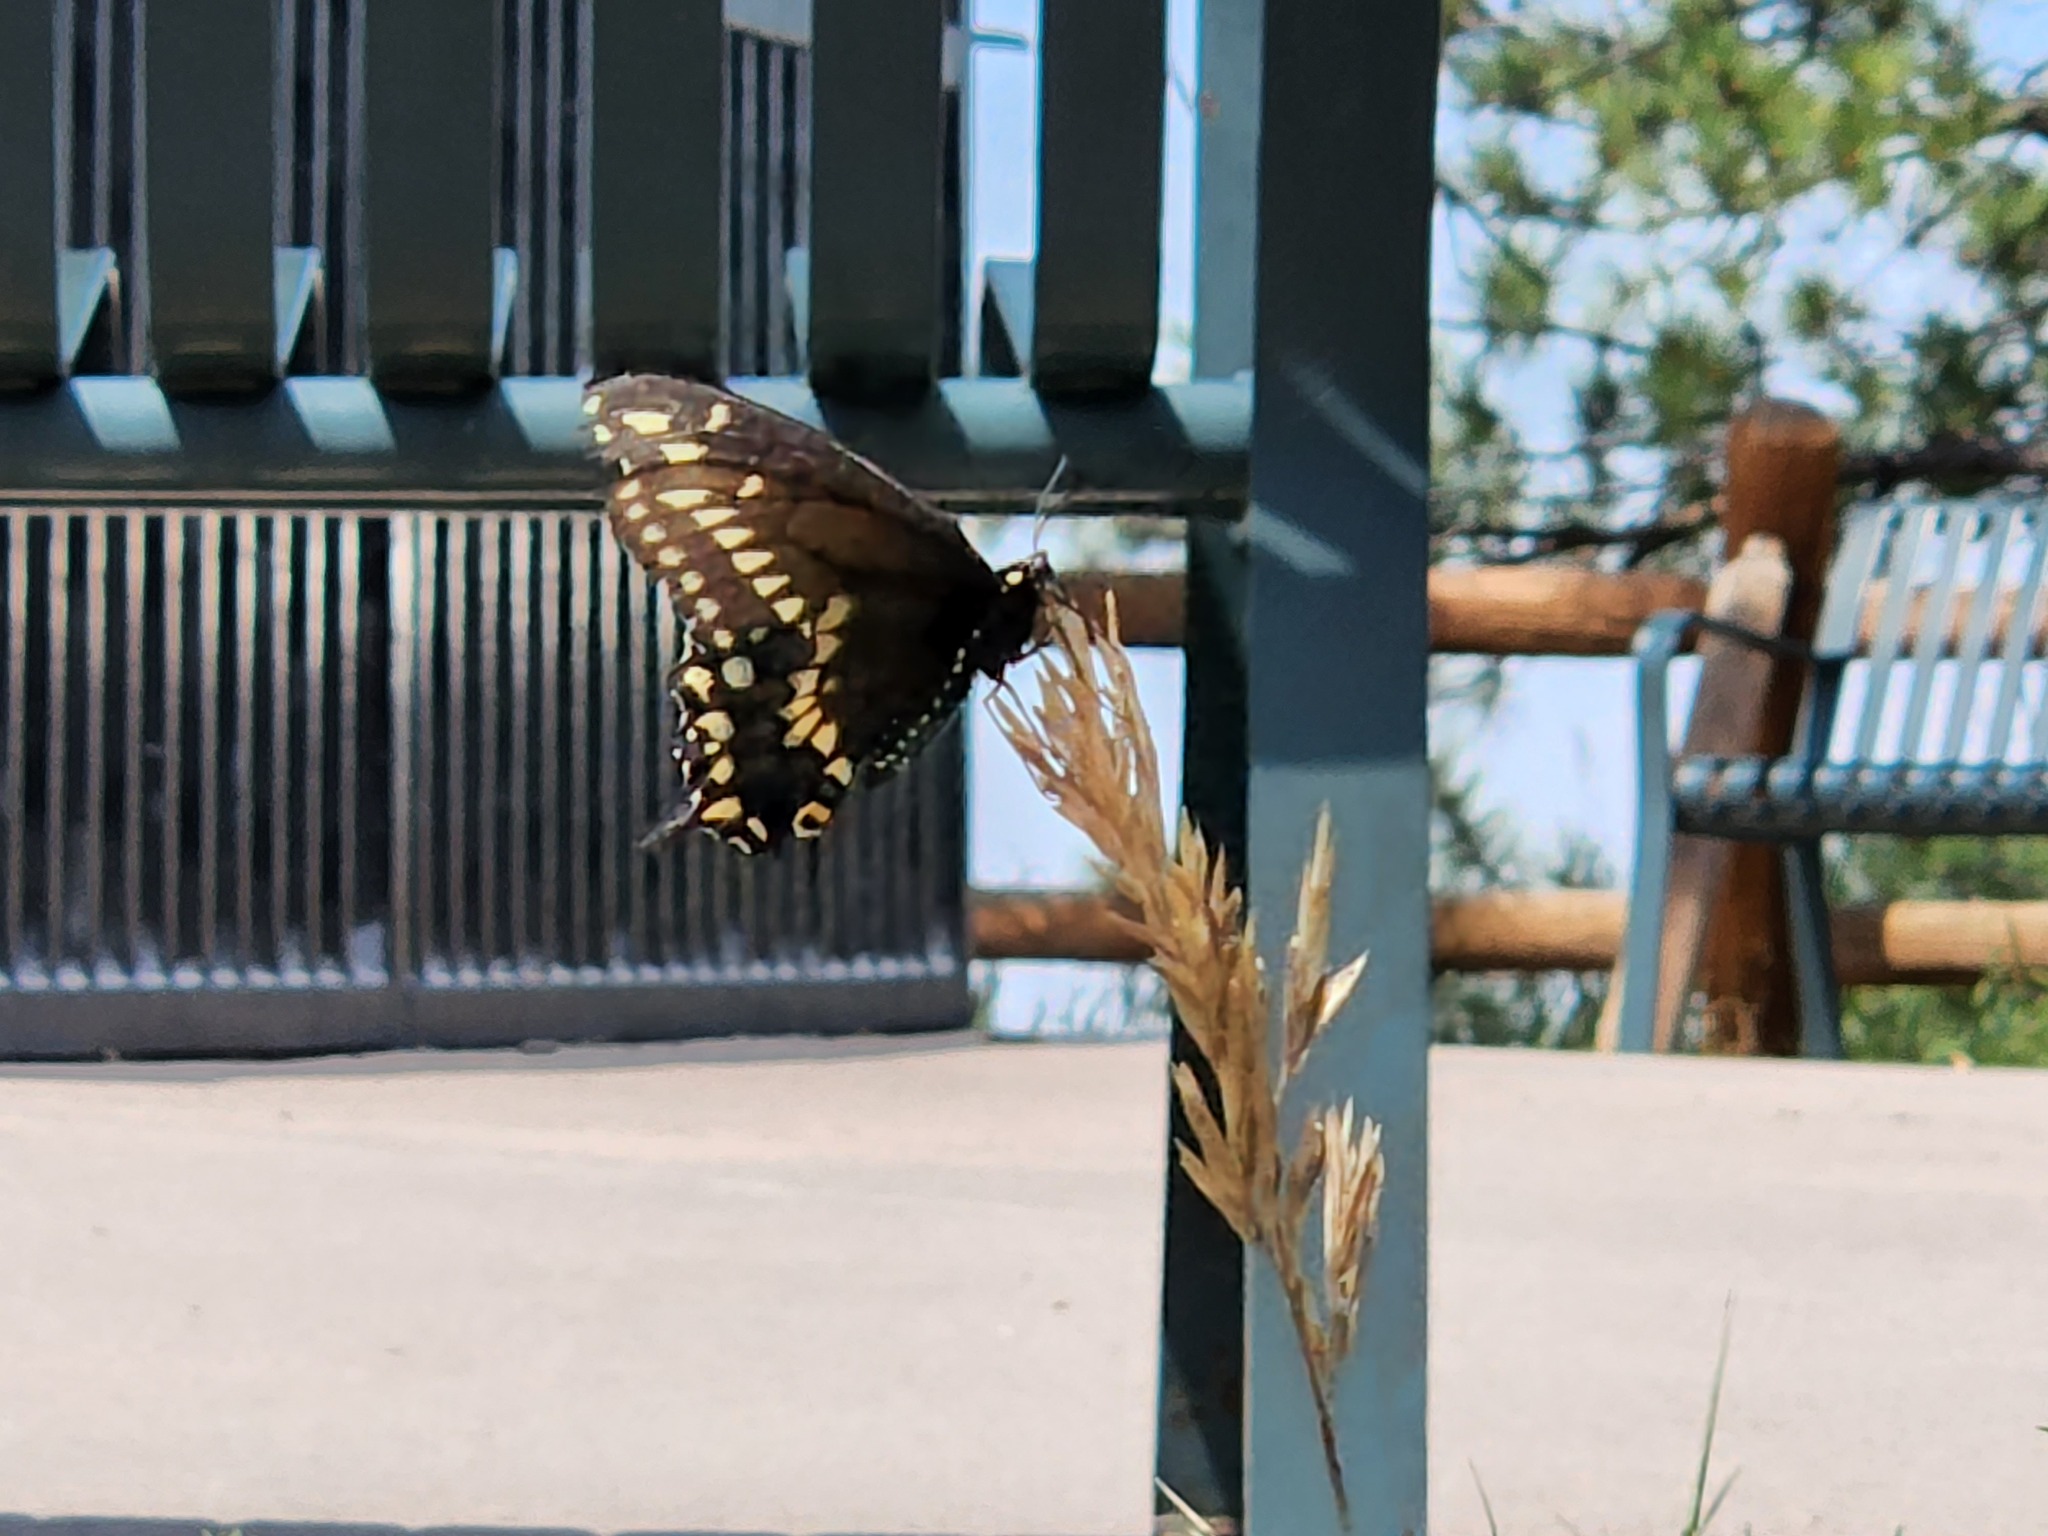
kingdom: Animalia
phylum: Arthropoda
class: Insecta
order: Lepidoptera
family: Papilionidae
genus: Papilio
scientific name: Papilio polyxenes
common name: Black swallowtail
